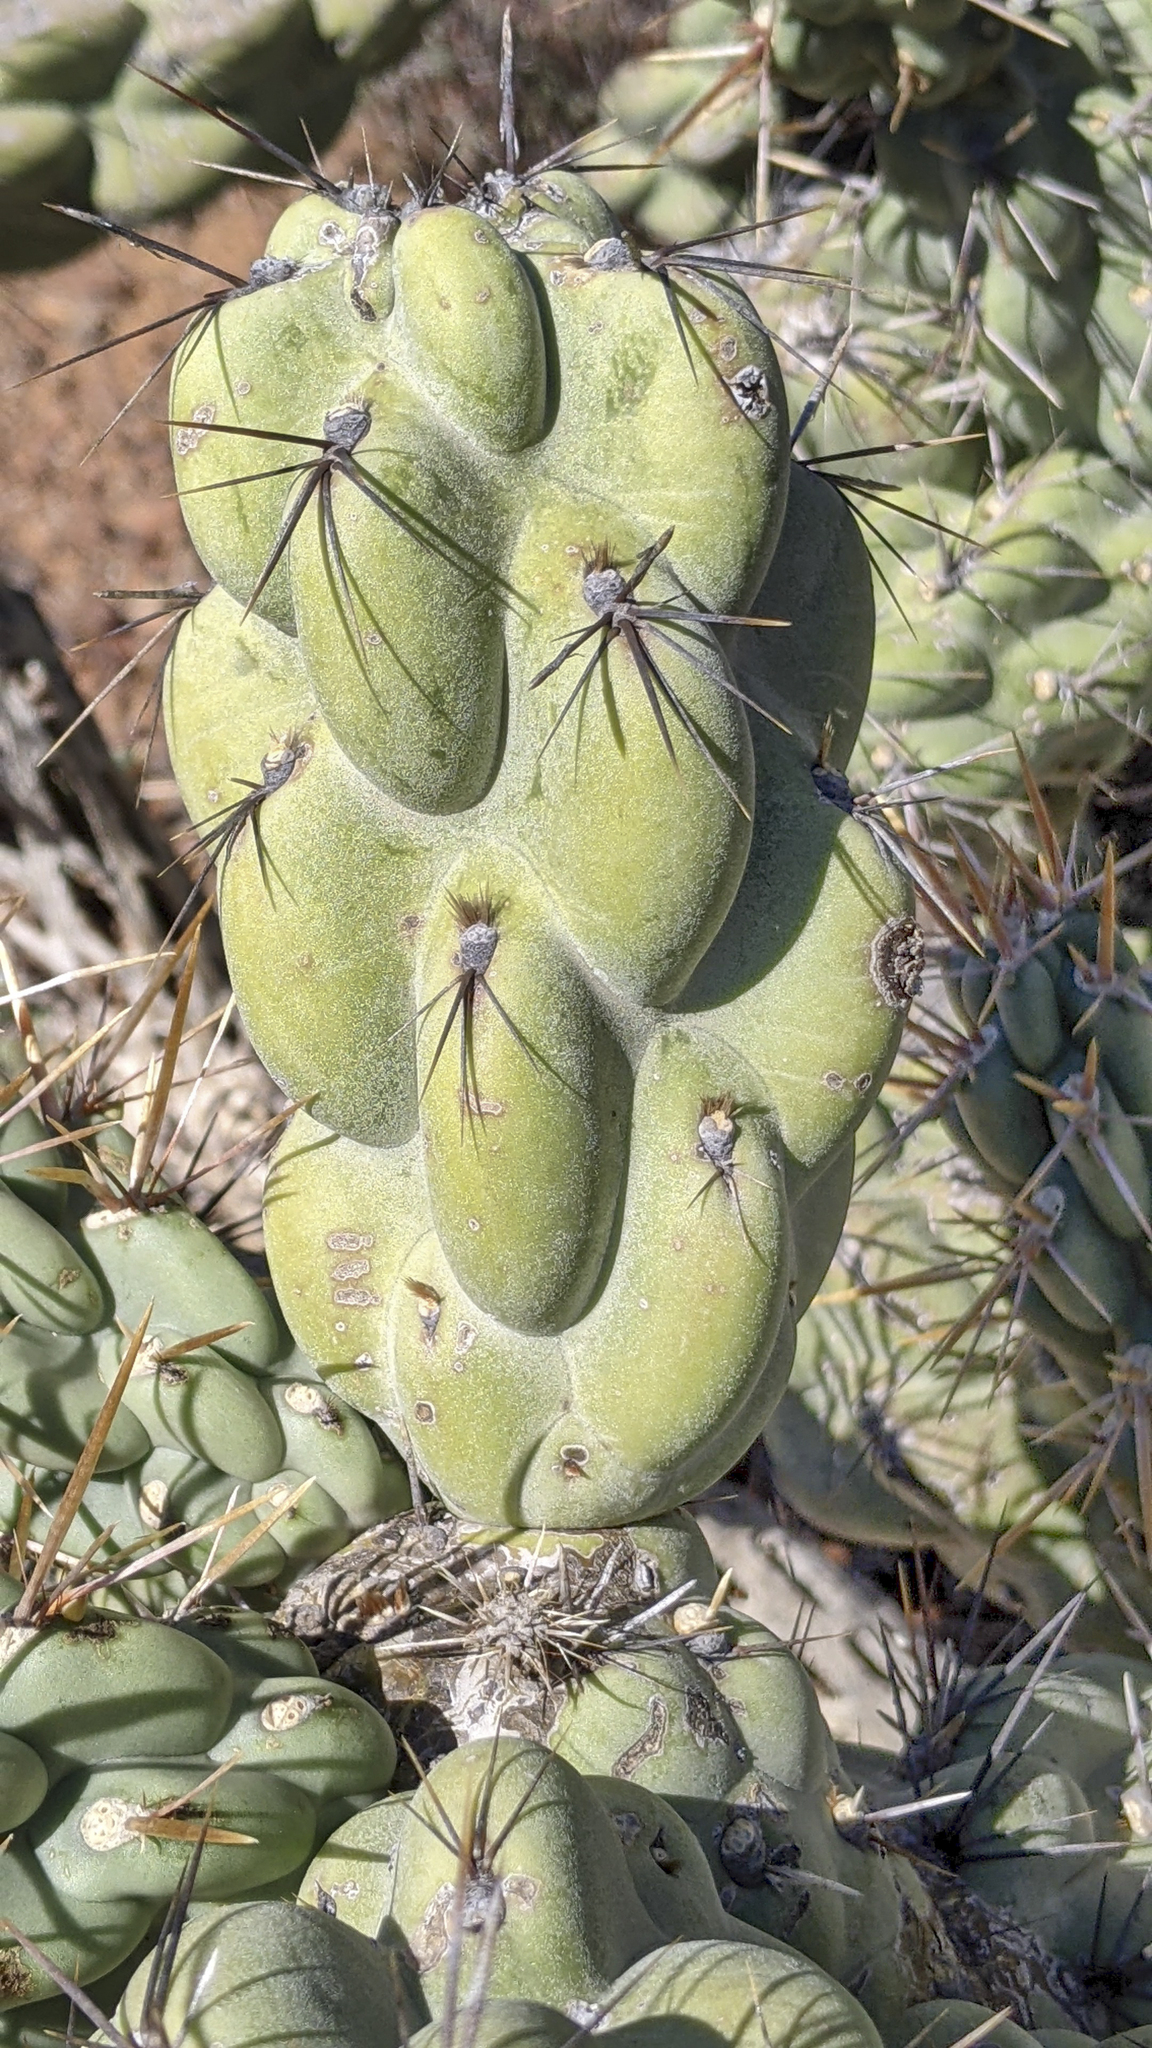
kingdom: Plantae
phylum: Tracheophyta
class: Magnoliopsida
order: Caryophyllales
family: Cactaceae
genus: Cylindropuntia
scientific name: Cylindropuntia cholla
